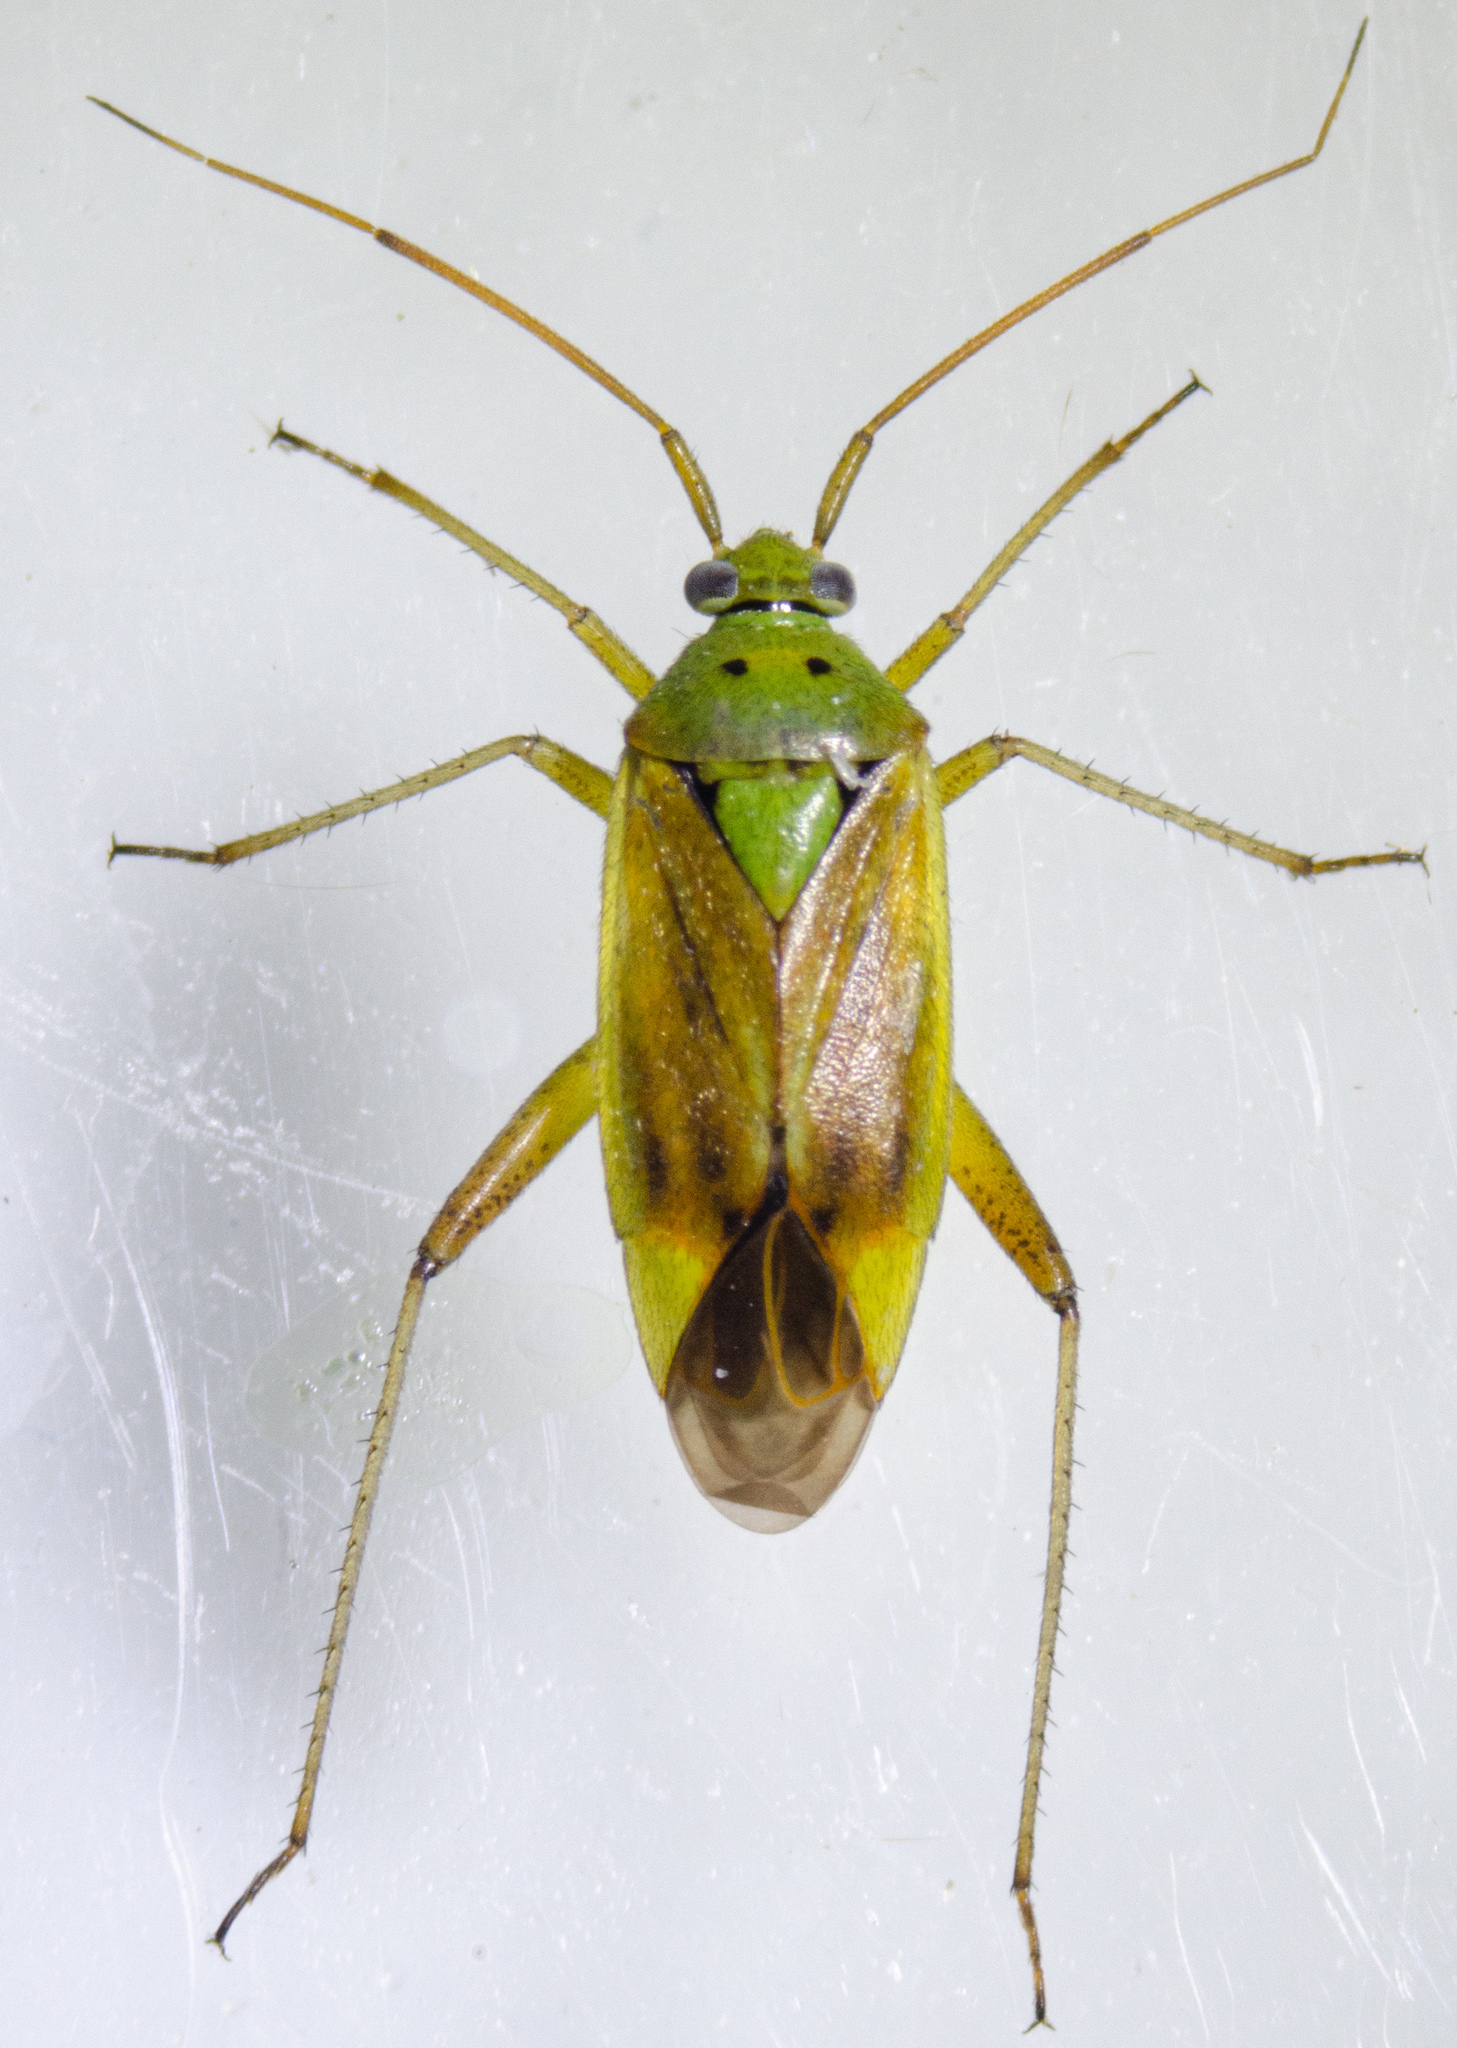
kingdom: Animalia
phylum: Arthropoda
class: Insecta
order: Hemiptera
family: Miridae
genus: Closterotomus
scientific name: Closterotomus norvegicus
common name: Plant bug
